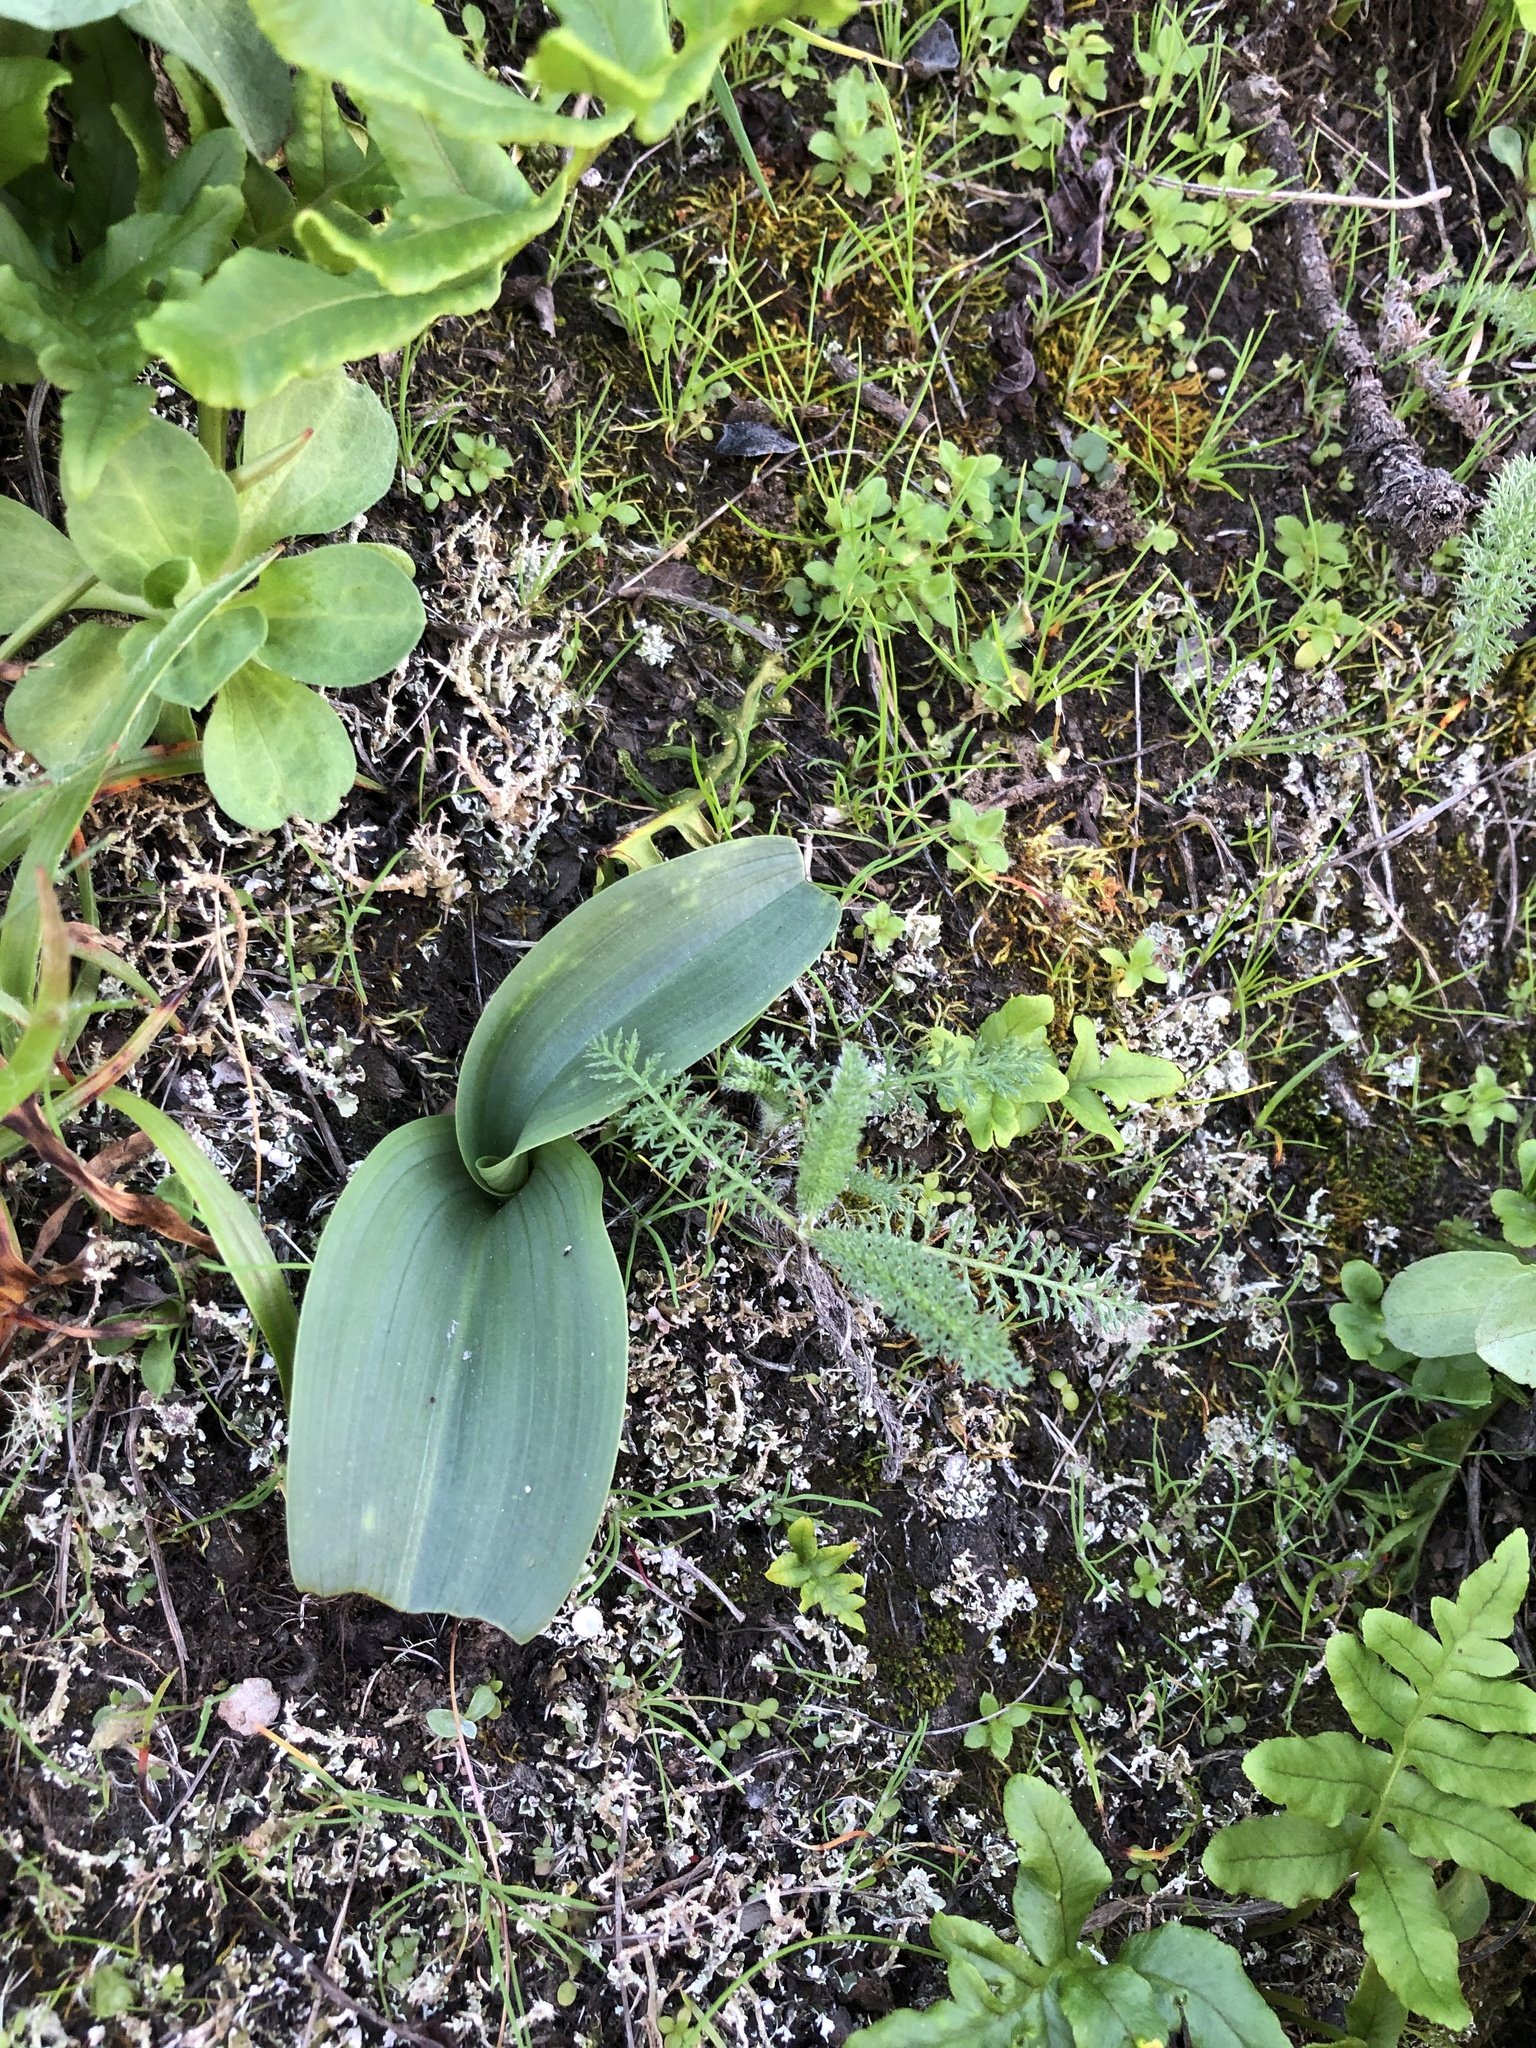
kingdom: Plantae
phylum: Tracheophyta
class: Liliopsida
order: Asparagales
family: Orchidaceae
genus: Platanthera
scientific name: Platanthera elegans
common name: Coast piperia
